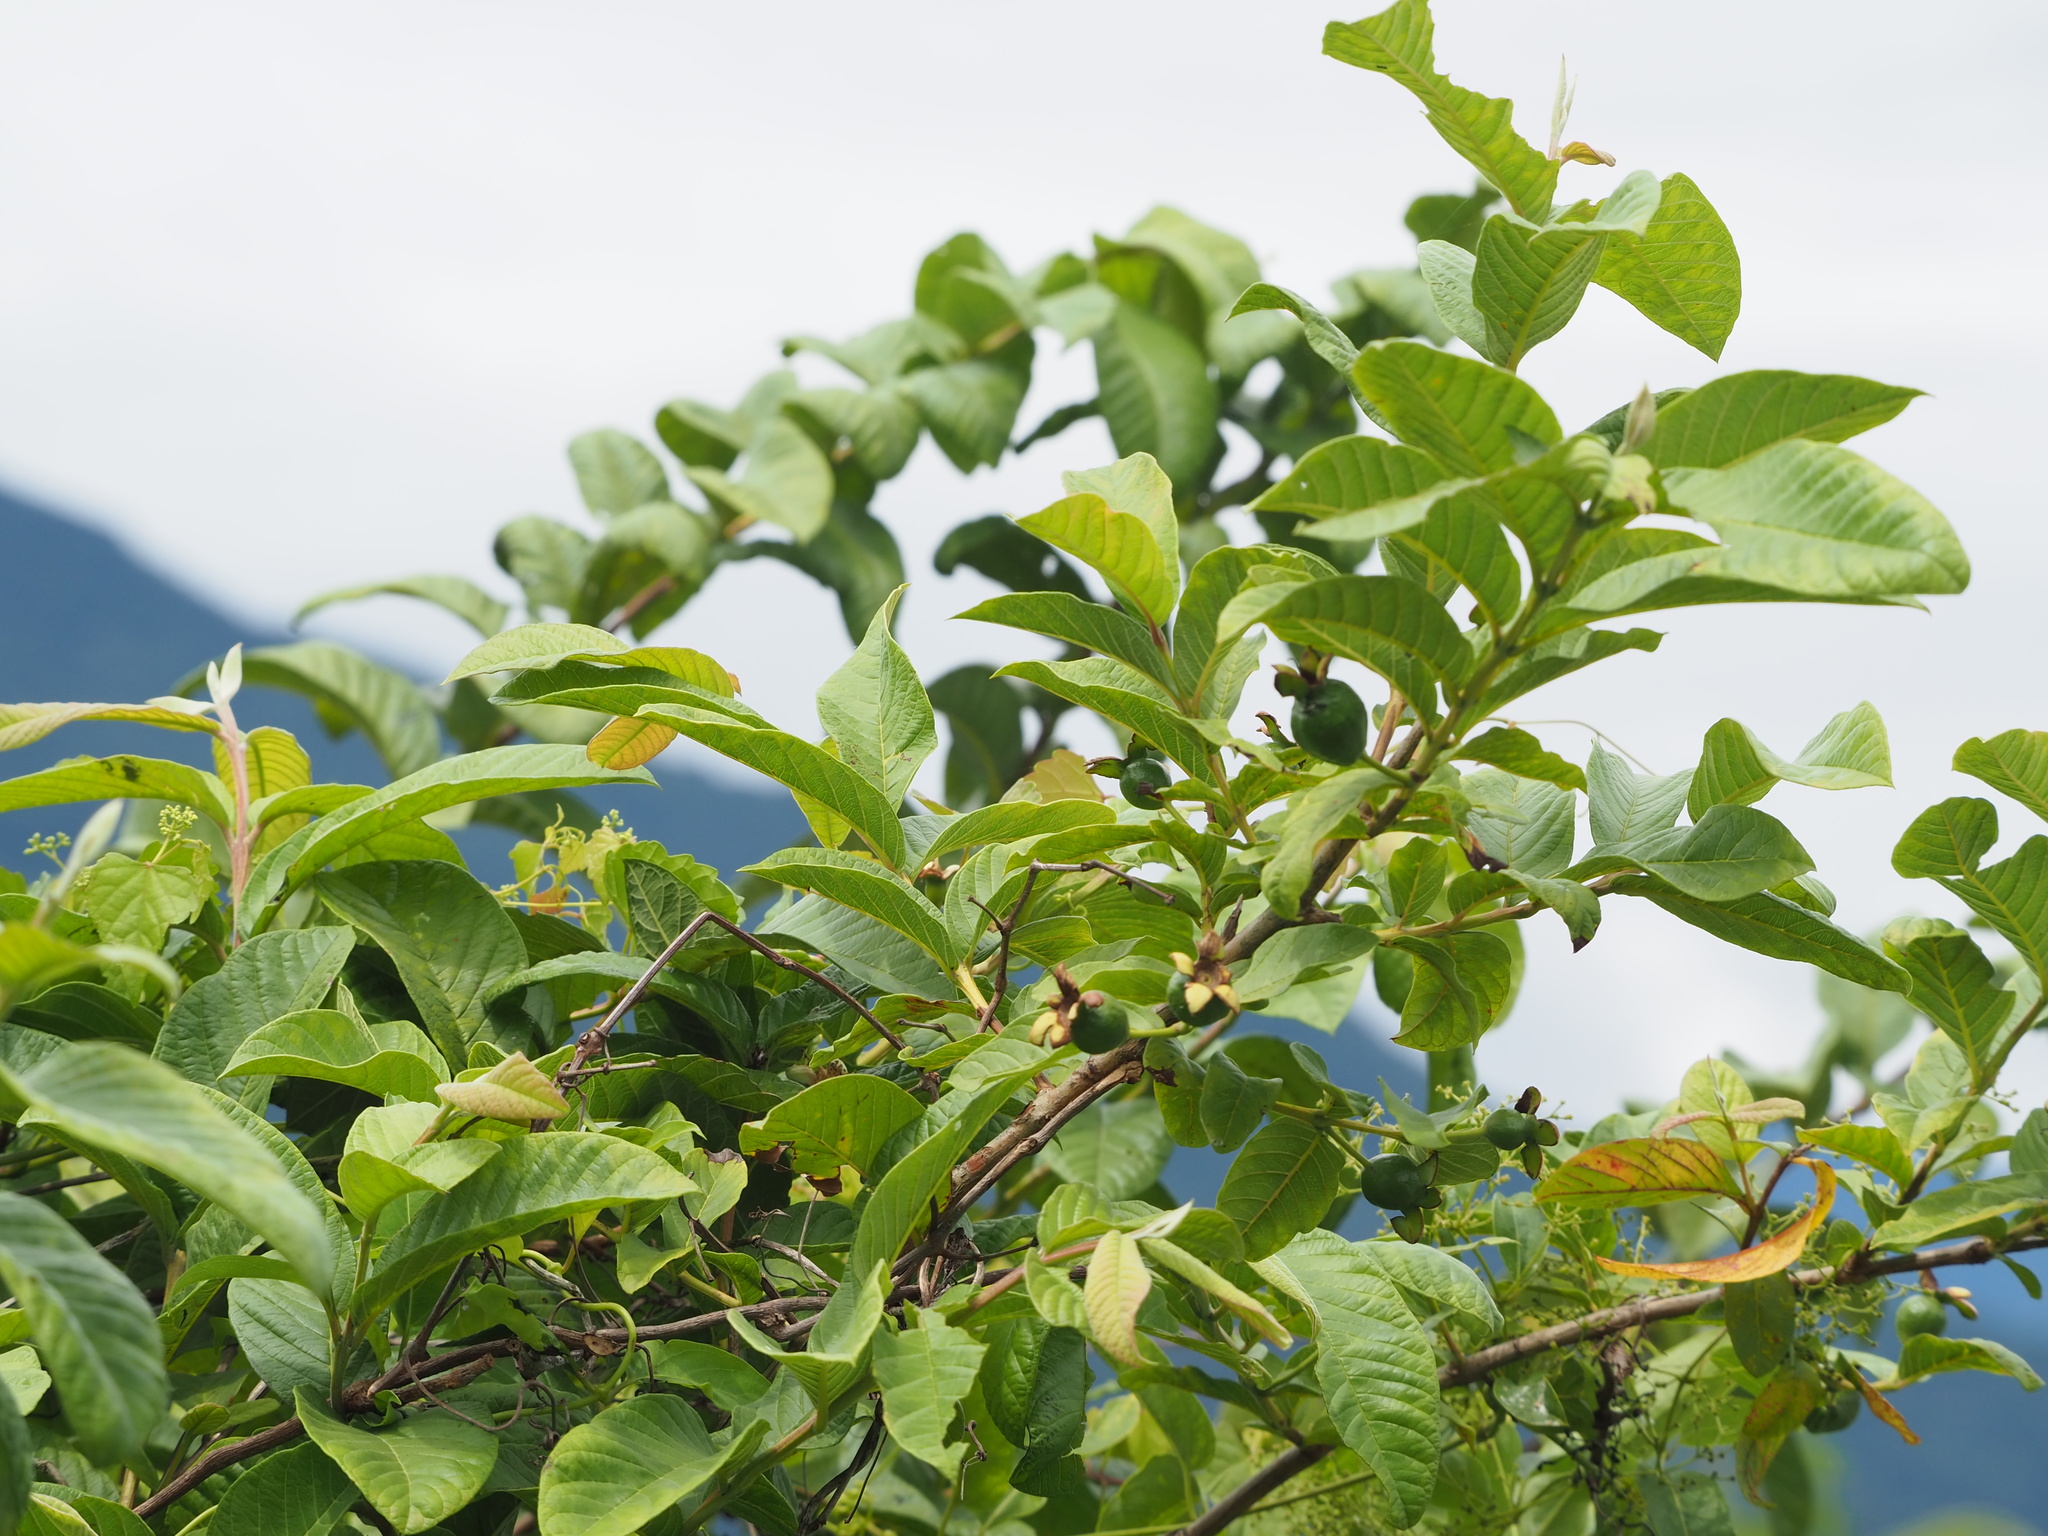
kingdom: Plantae
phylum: Tracheophyta
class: Magnoliopsida
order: Myrtales
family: Myrtaceae
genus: Psidium
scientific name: Psidium guajava
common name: Guava
